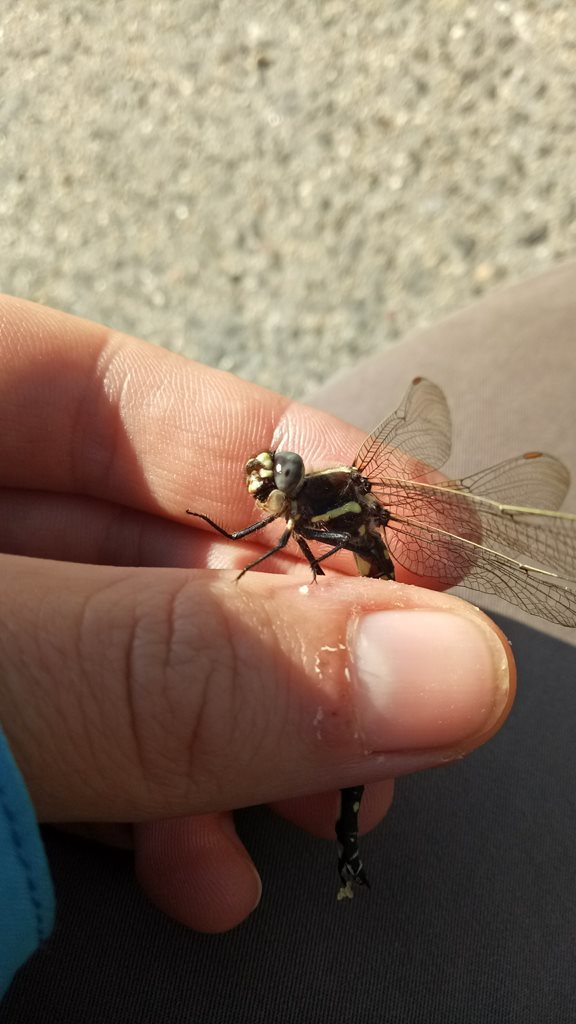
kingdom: Animalia
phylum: Arthropoda
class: Insecta
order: Odonata
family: Synthemistidae
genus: Synthemis
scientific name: Synthemis eustalacta
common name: Swamp tigertail
